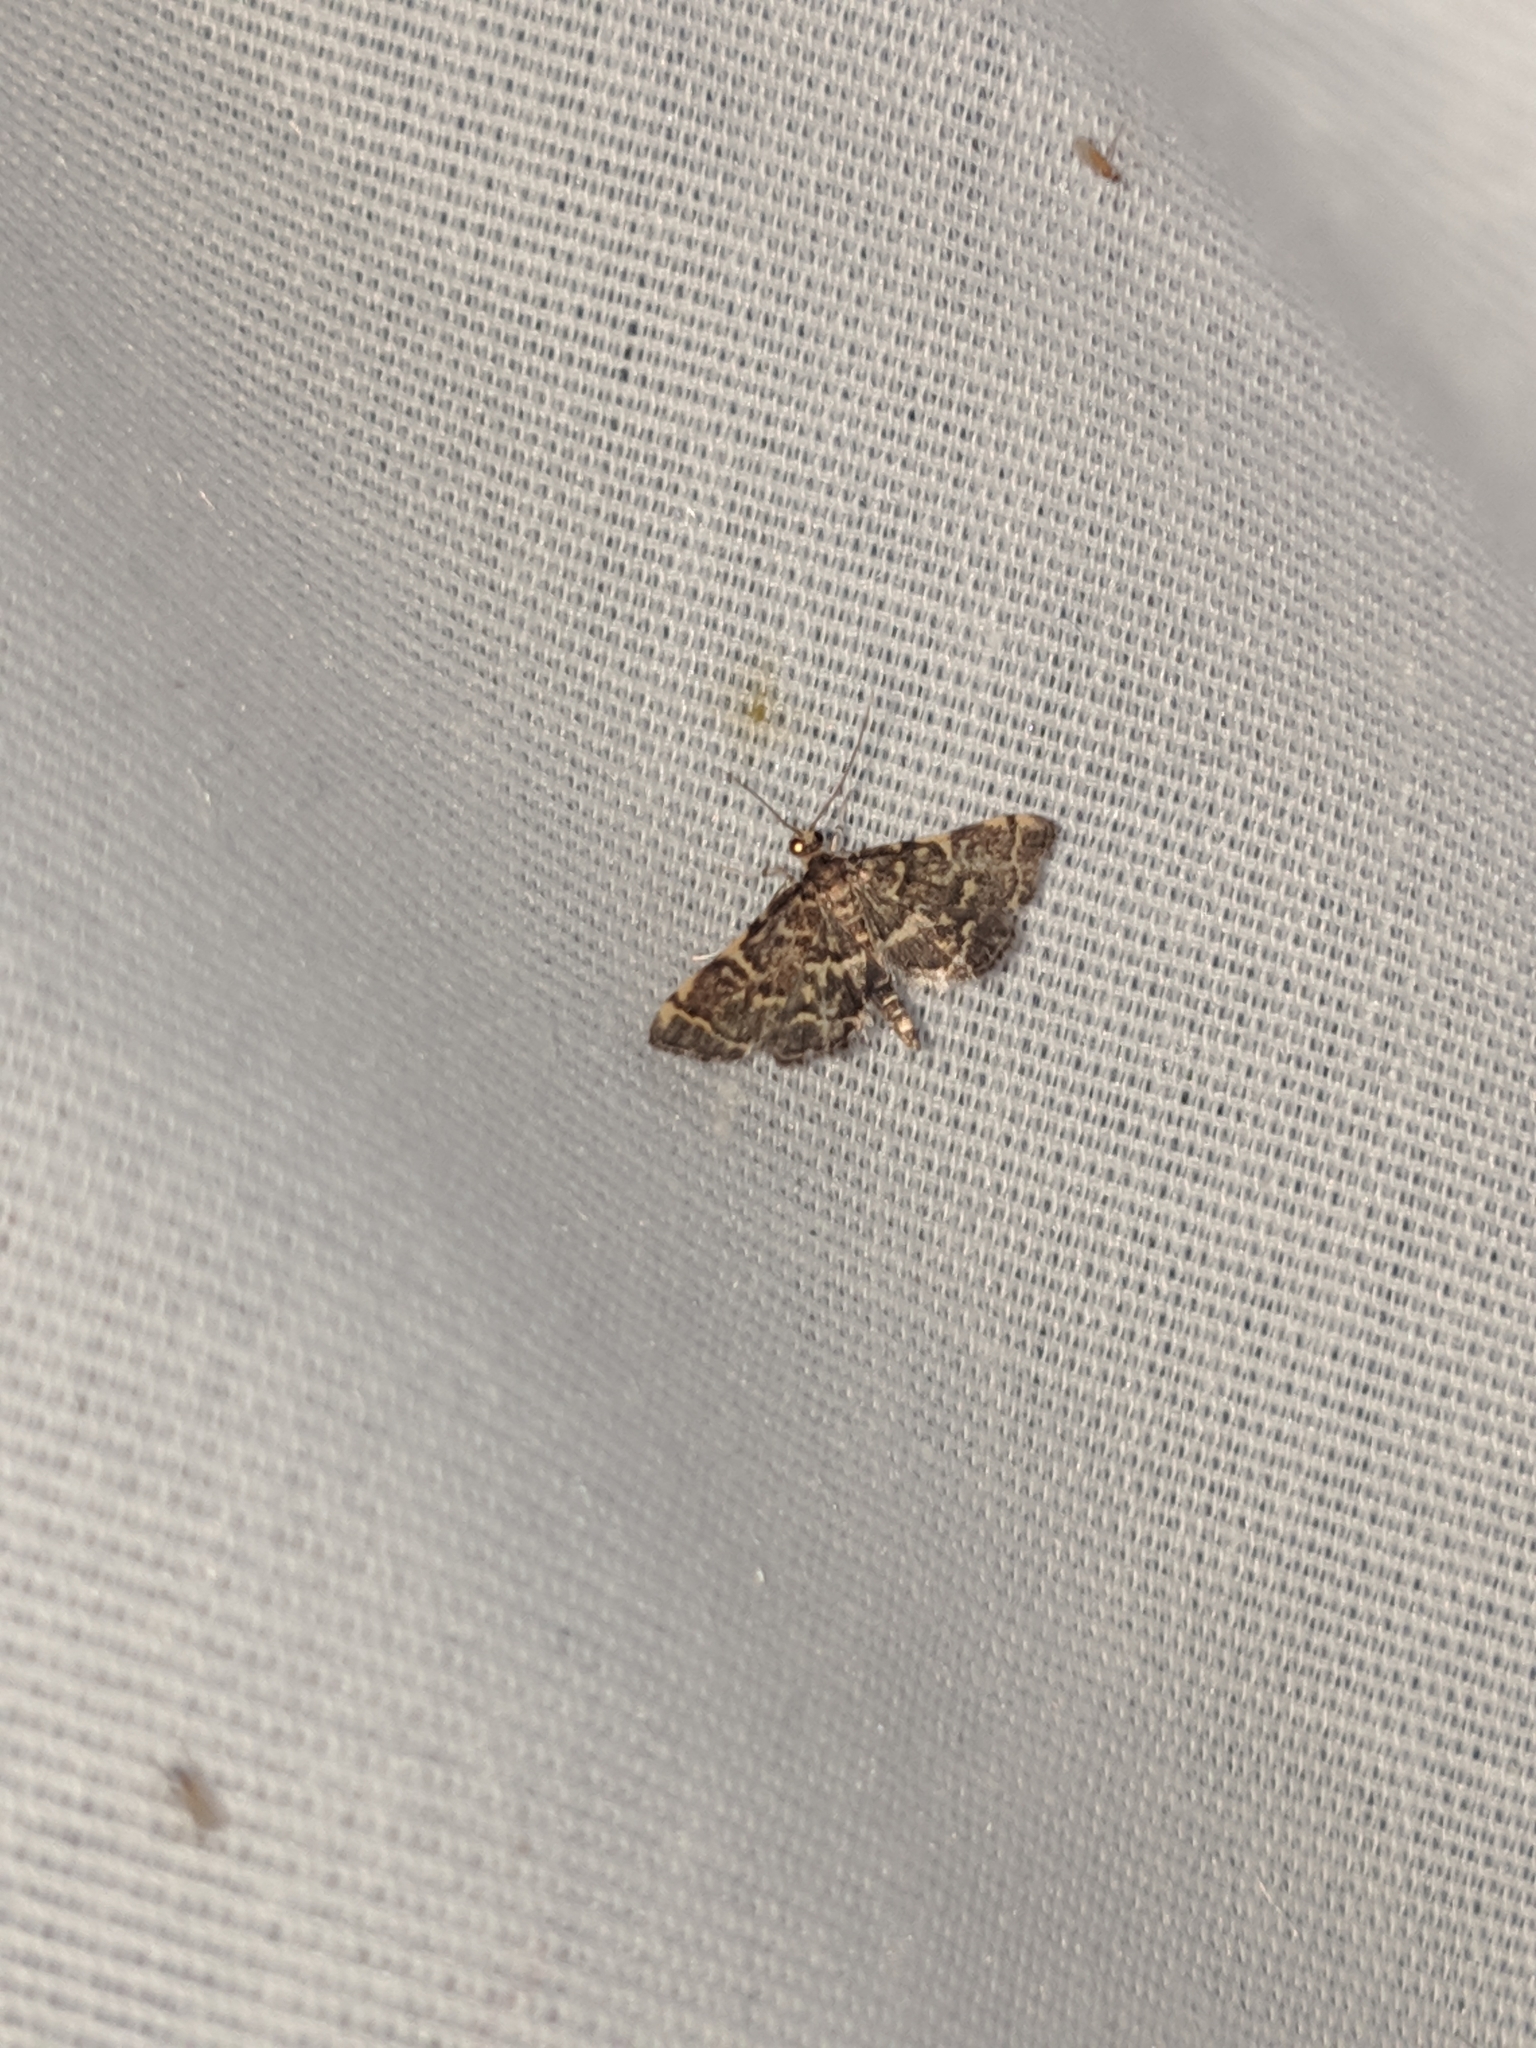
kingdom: Animalia
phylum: Arthropoda
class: Insecta
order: Lepidoptera
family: Crambidae
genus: Anageshna
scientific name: Anageshna primordialis
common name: Yellow-spotted webworm moth
